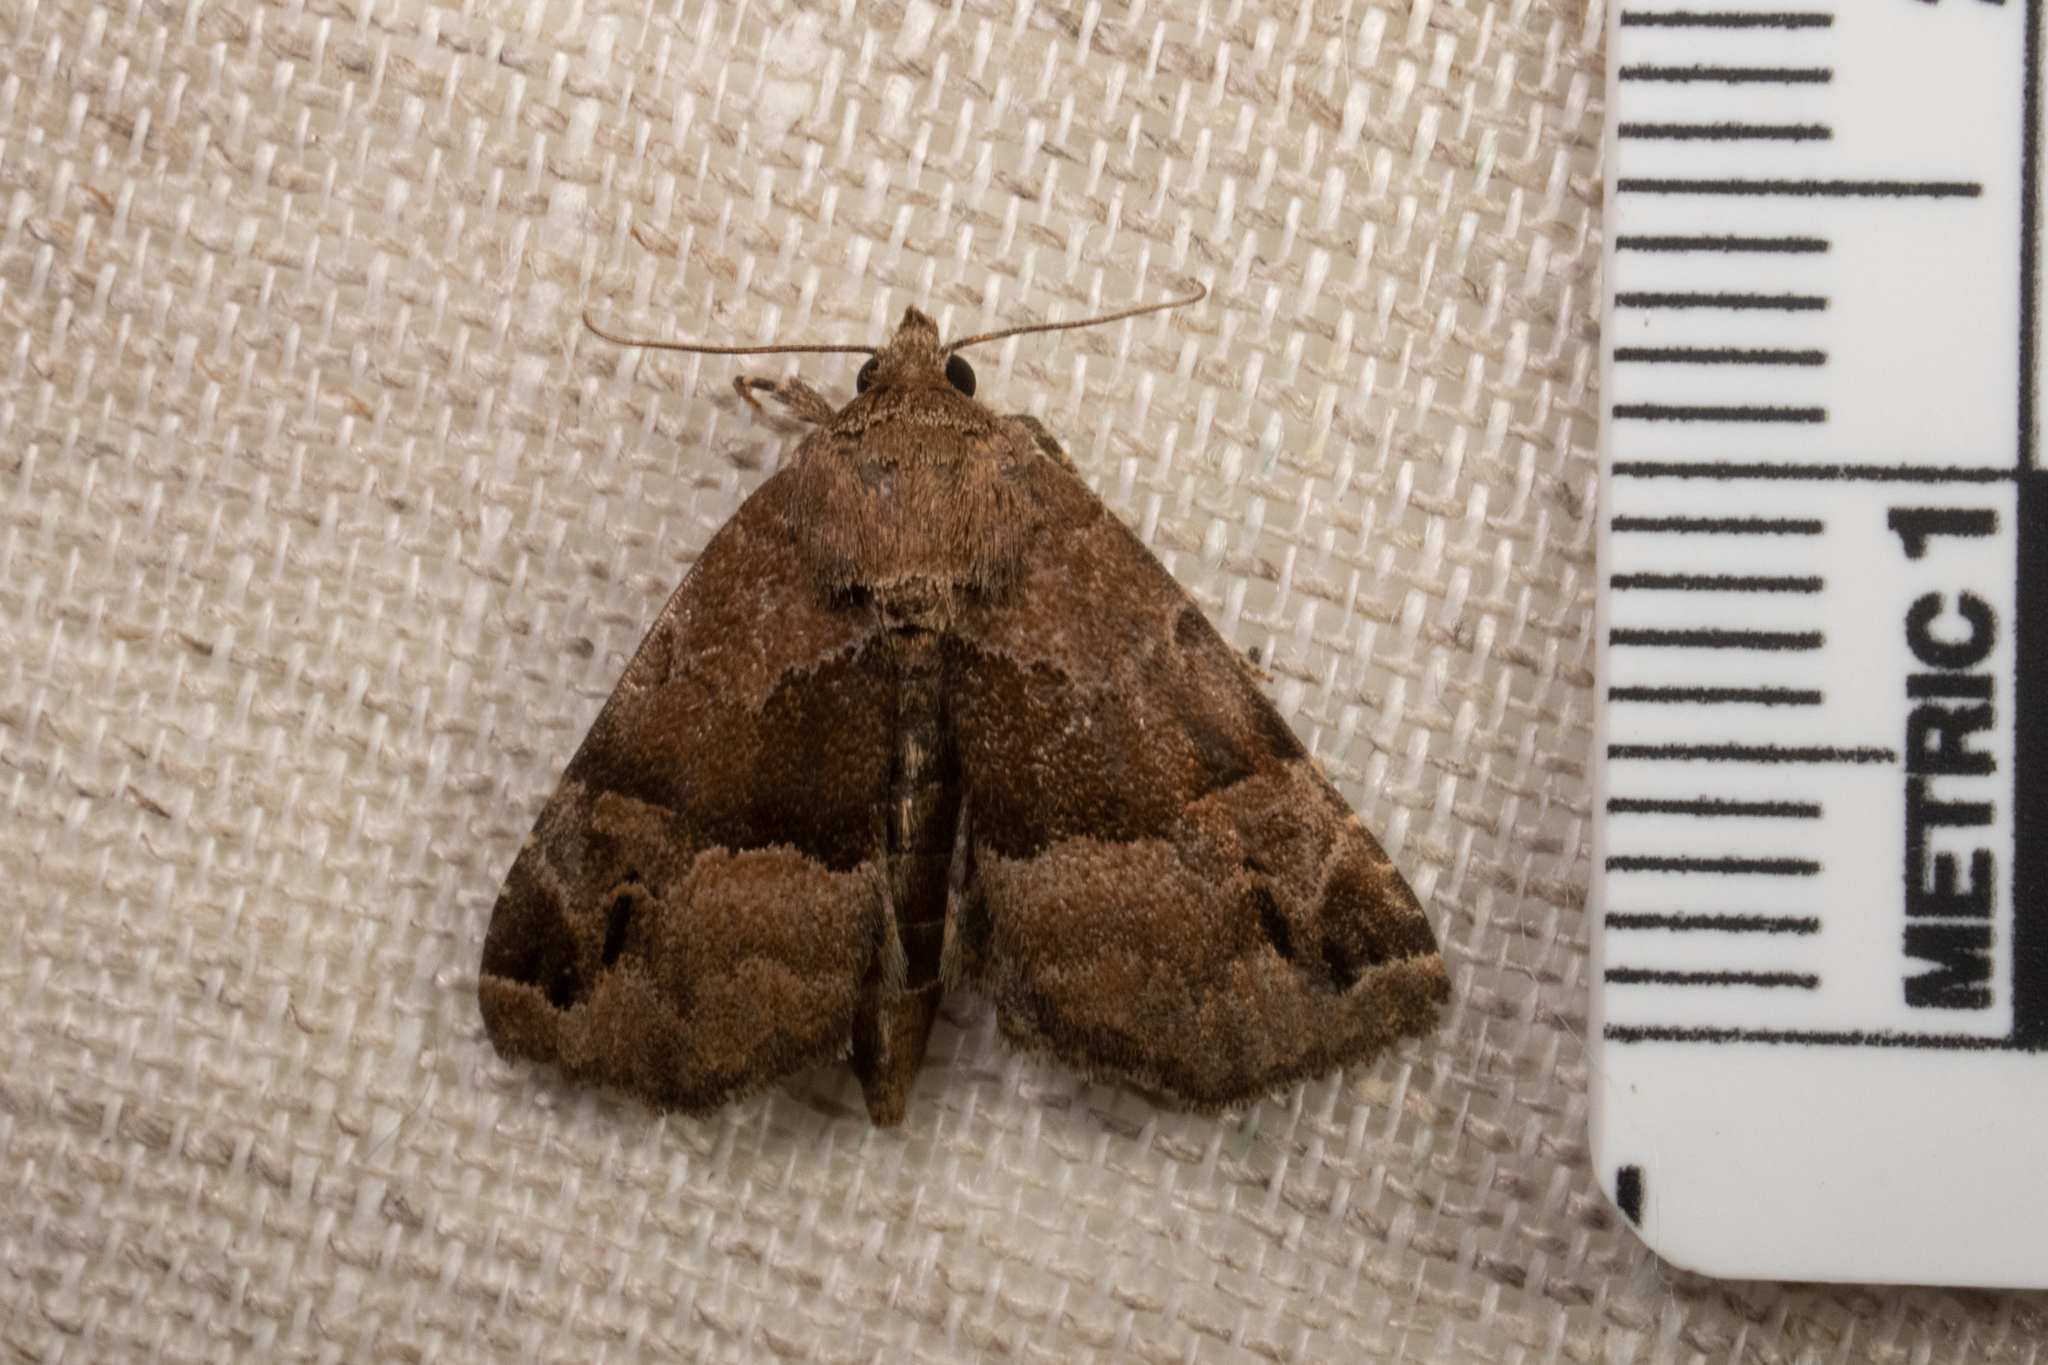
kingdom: Animalia
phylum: Arthropoda
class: Insecta
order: Lepidoptera
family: Noctuidae
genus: Niphonyx
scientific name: Niphonyx segregata
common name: Hops angleshade moth
